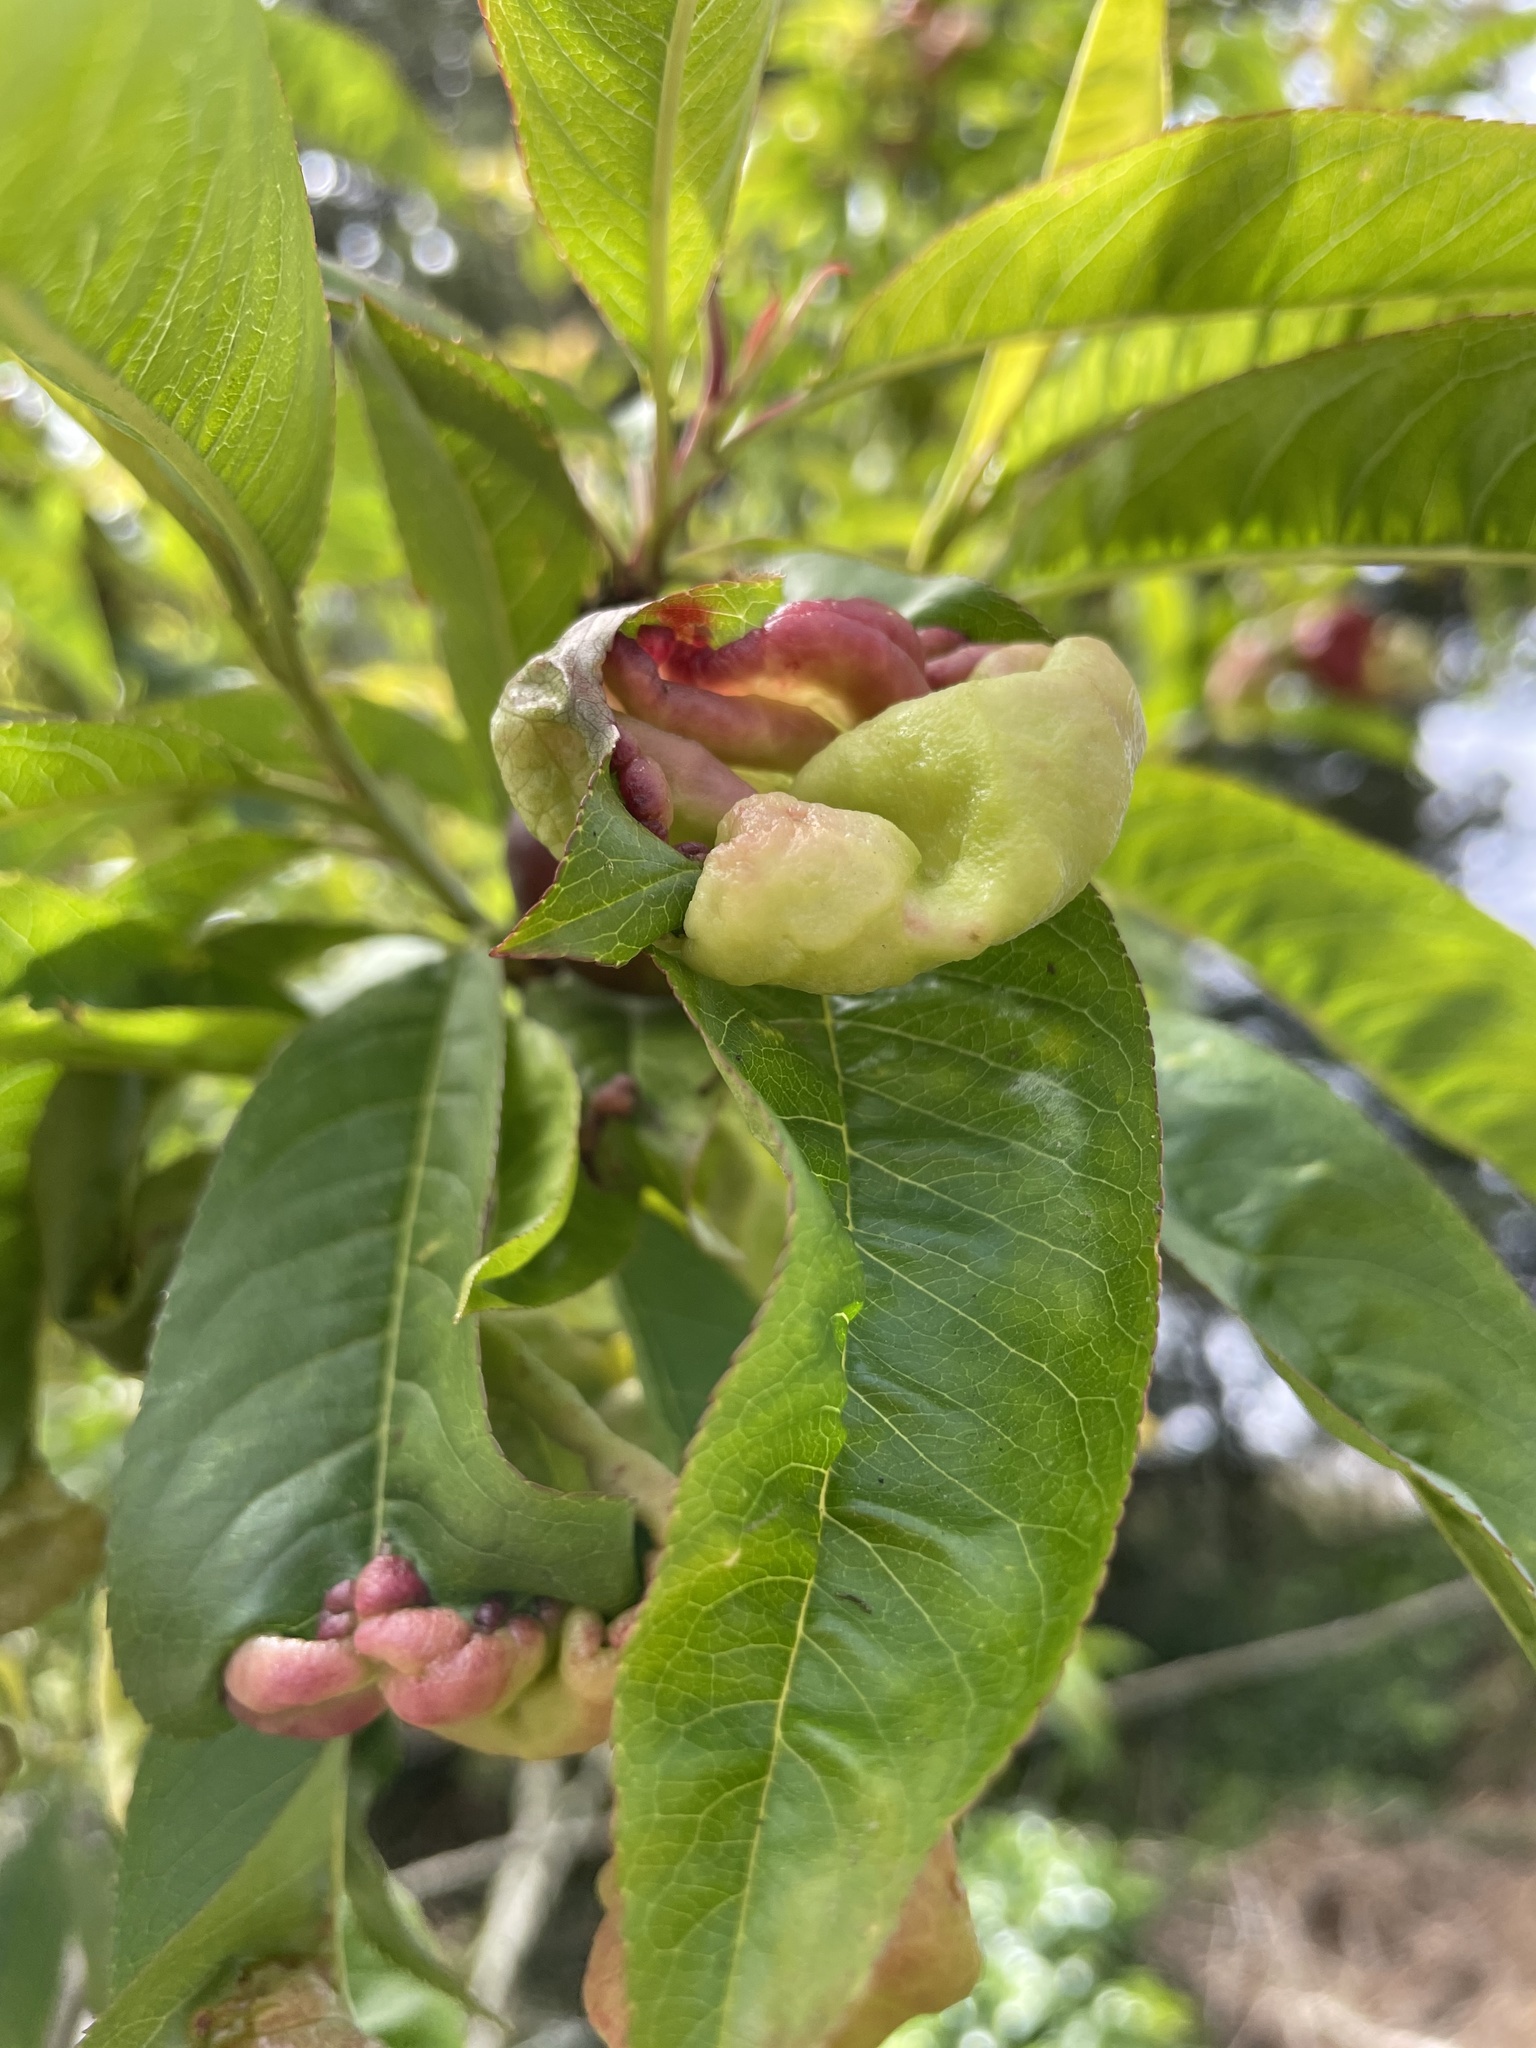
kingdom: Fungi
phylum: Ascomycota
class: Taphrinomycetes
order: Taphrinales
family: Taphrinaceae
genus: Taphrina
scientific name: Taphrina deformans
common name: Peach leaf curl
